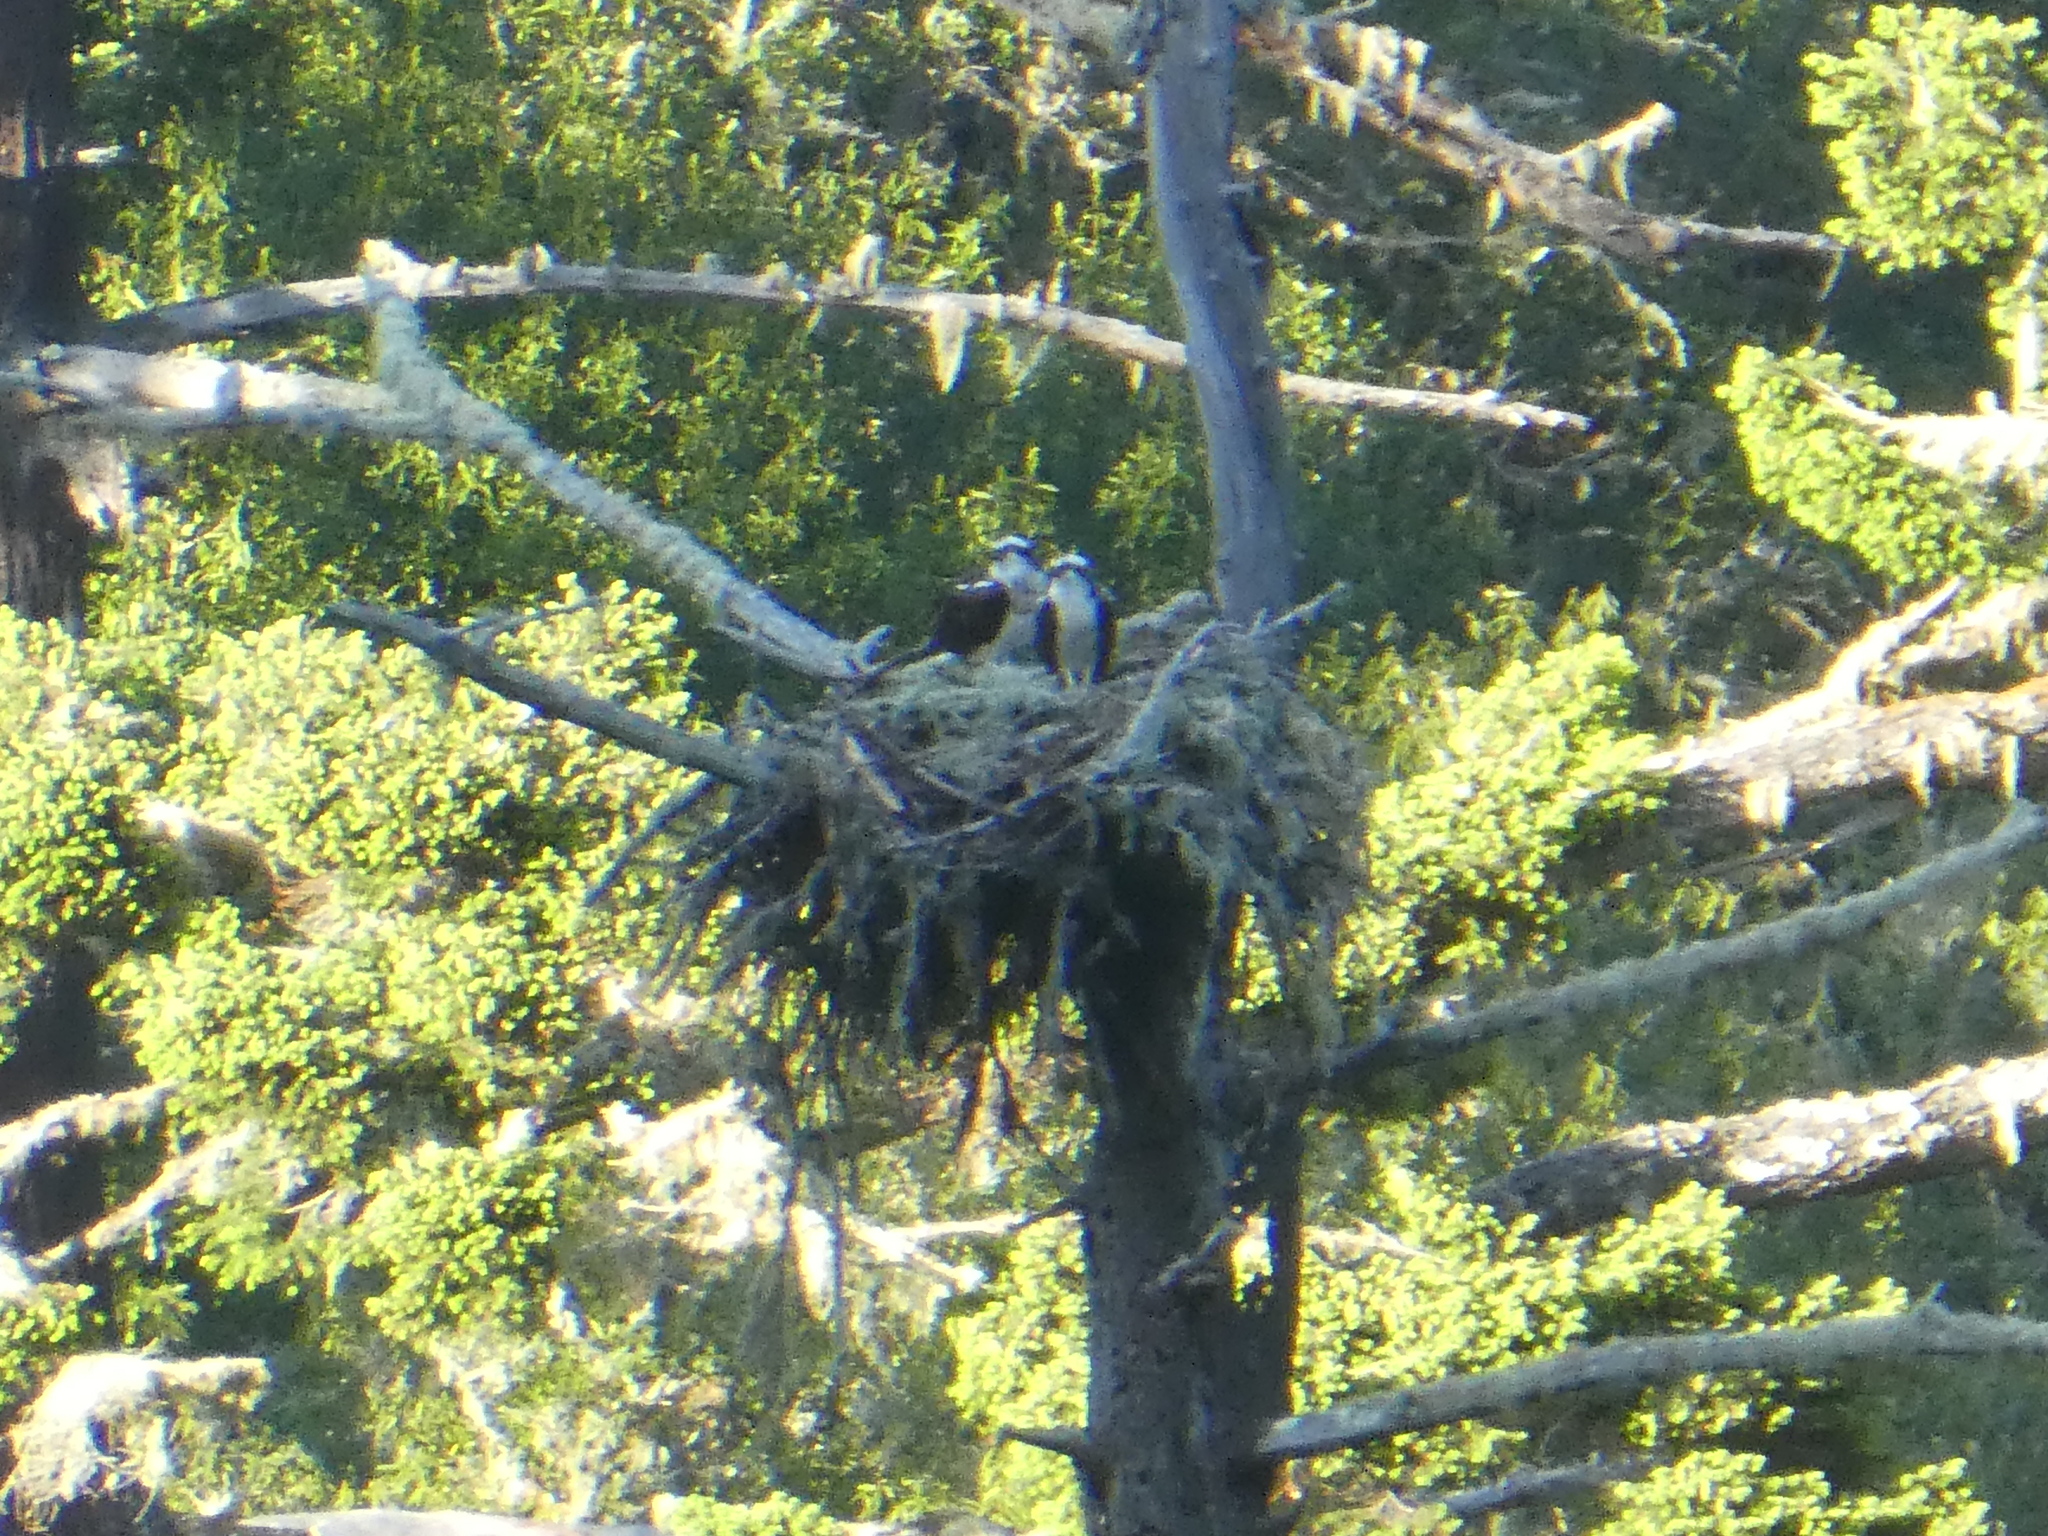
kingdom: Animalia
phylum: Chordata
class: Aves
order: Accipitriformes
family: Pandionidae
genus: Pandion
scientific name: Pandion haliaetus
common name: Osprey
